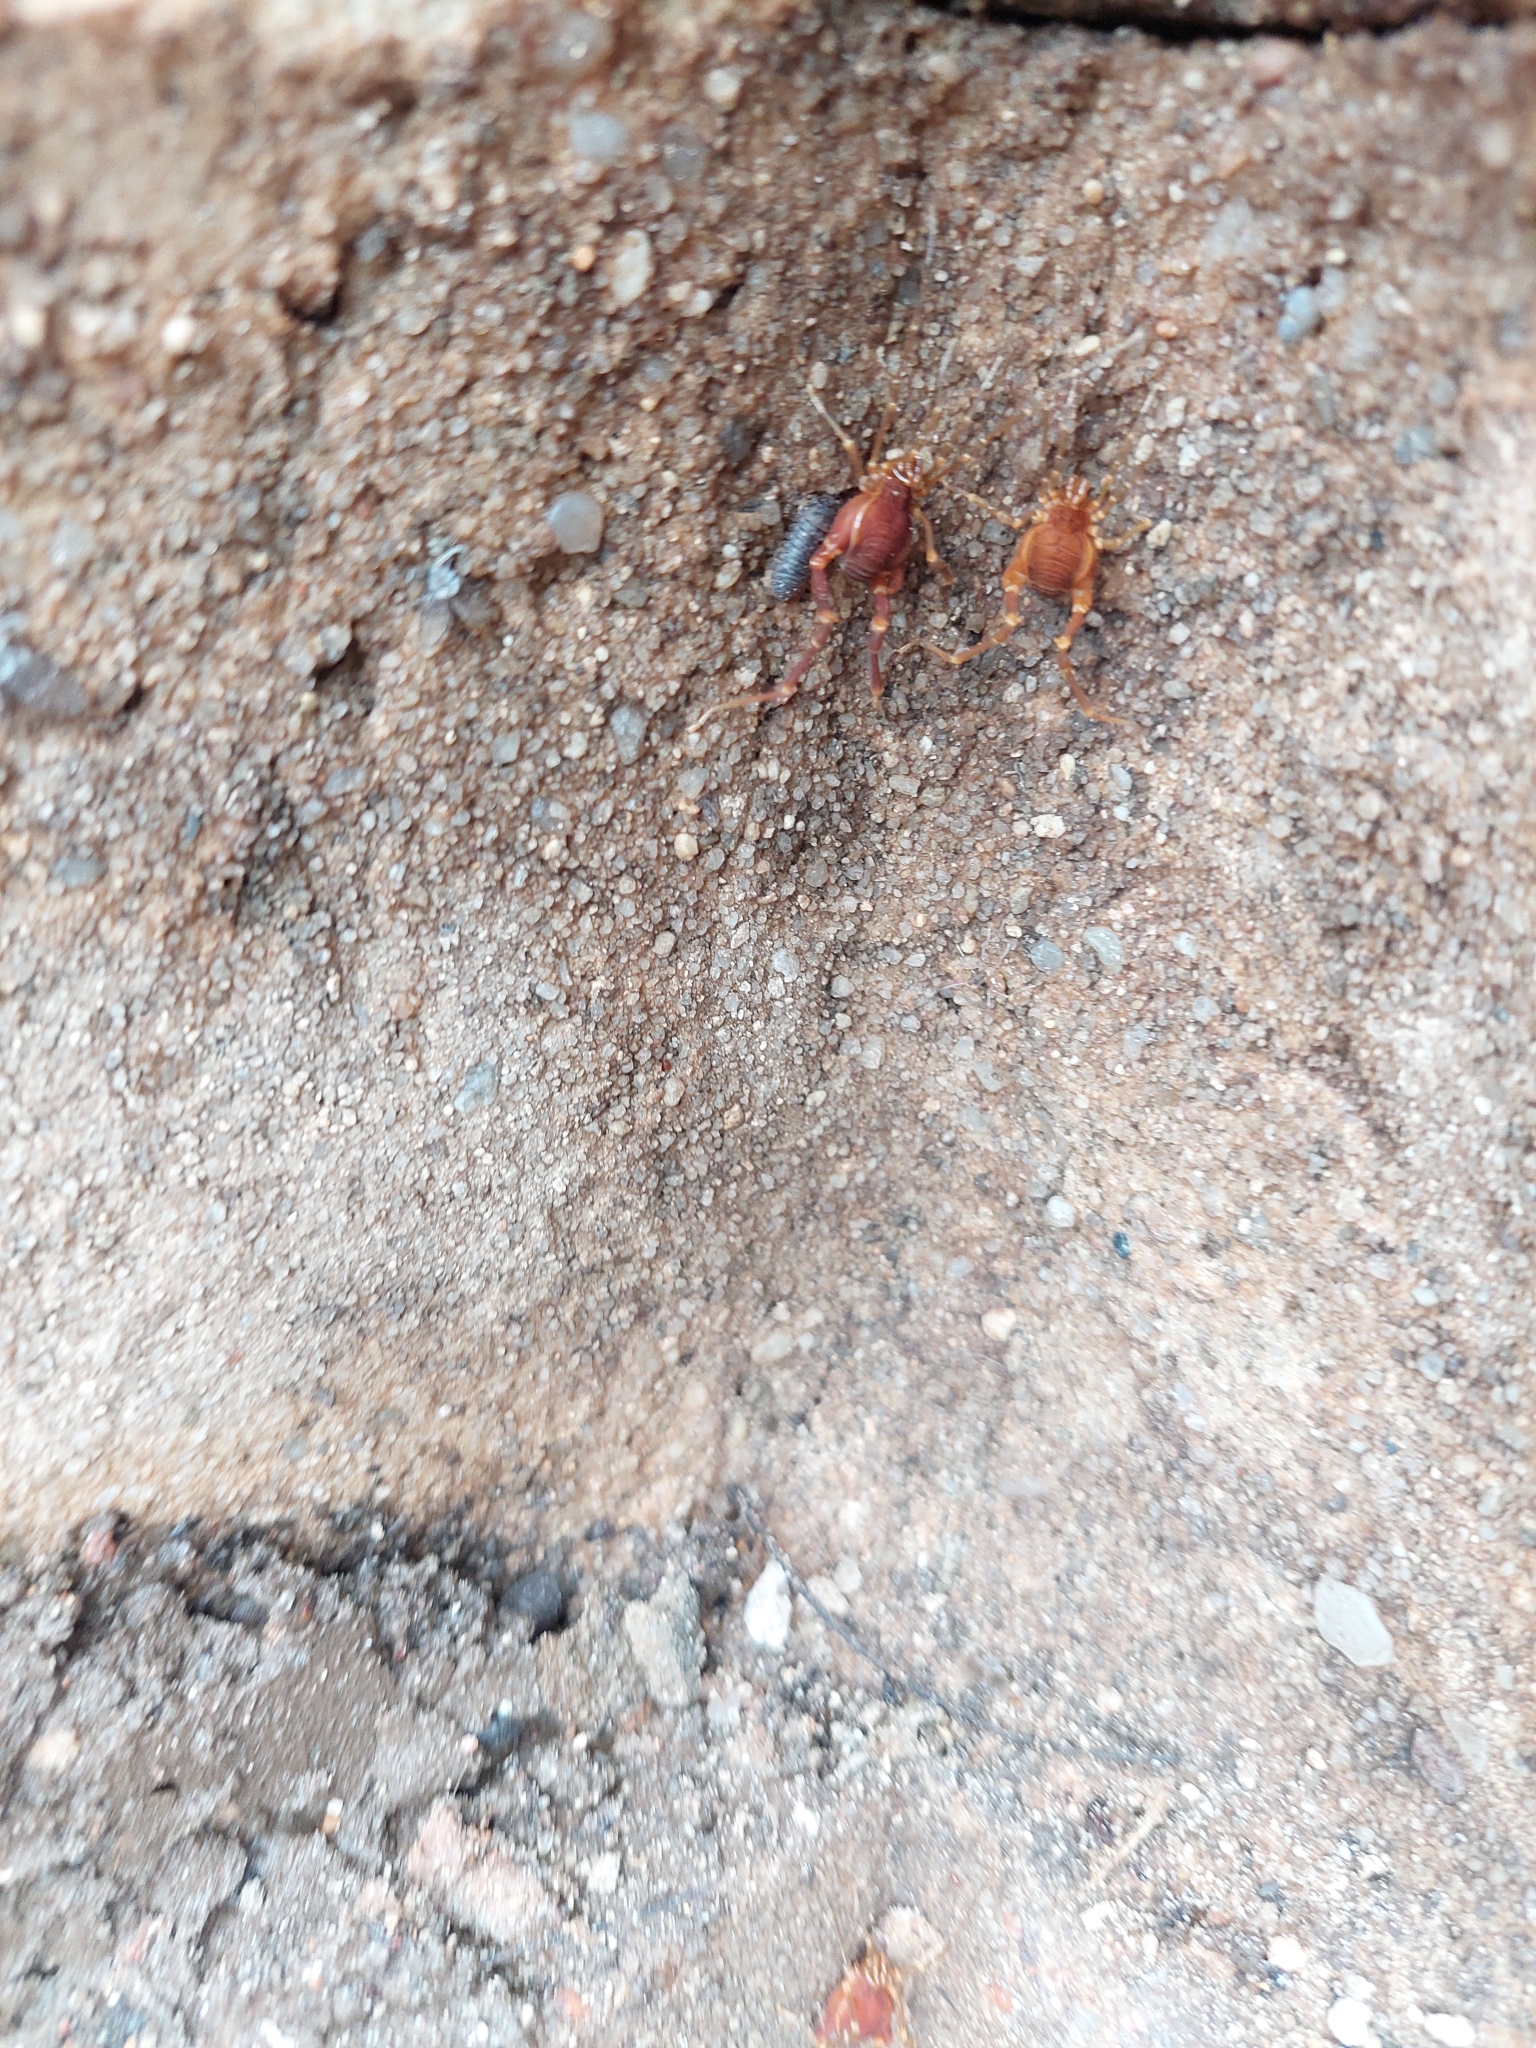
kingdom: Animalia
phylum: Arthropoda
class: Arachnida
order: Opiliones
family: Gonyleptidae
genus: Pachyloides
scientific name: Pachyloides thorellii
